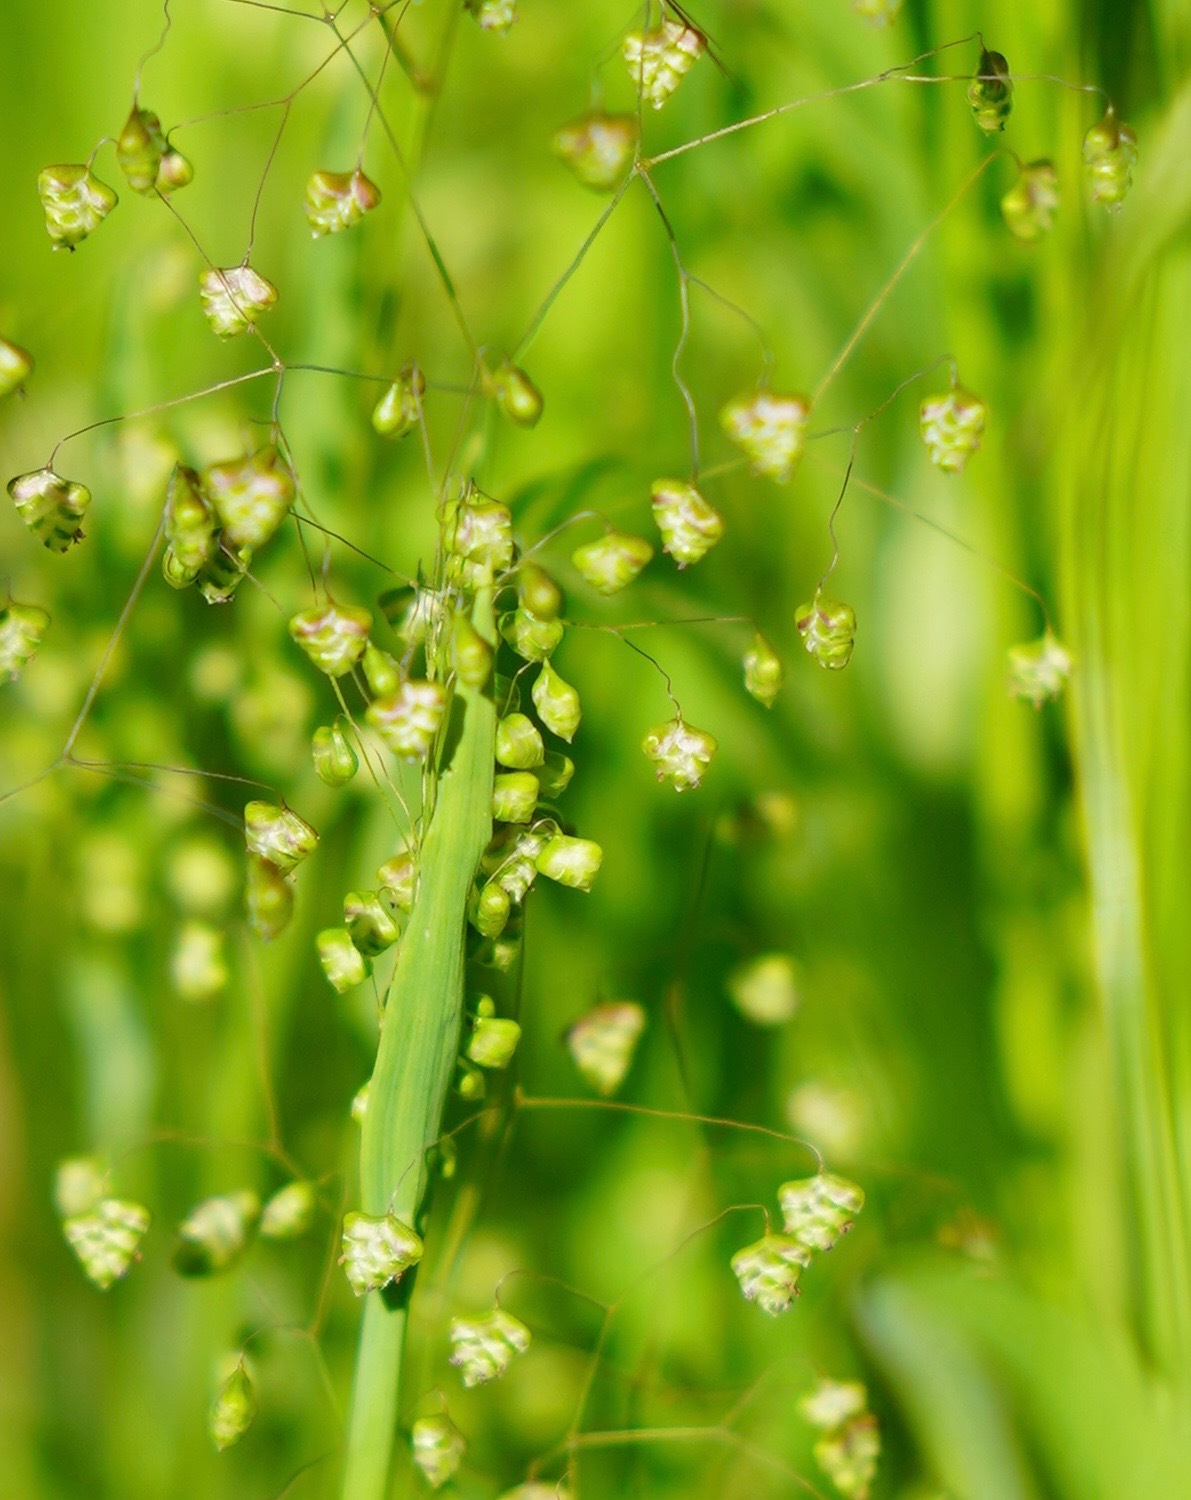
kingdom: Plantae
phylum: Tracheophyta
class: Liliopsida
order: Poales
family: Poaceae
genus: Briza
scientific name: Briza minor
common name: Lesser quaking-grass
